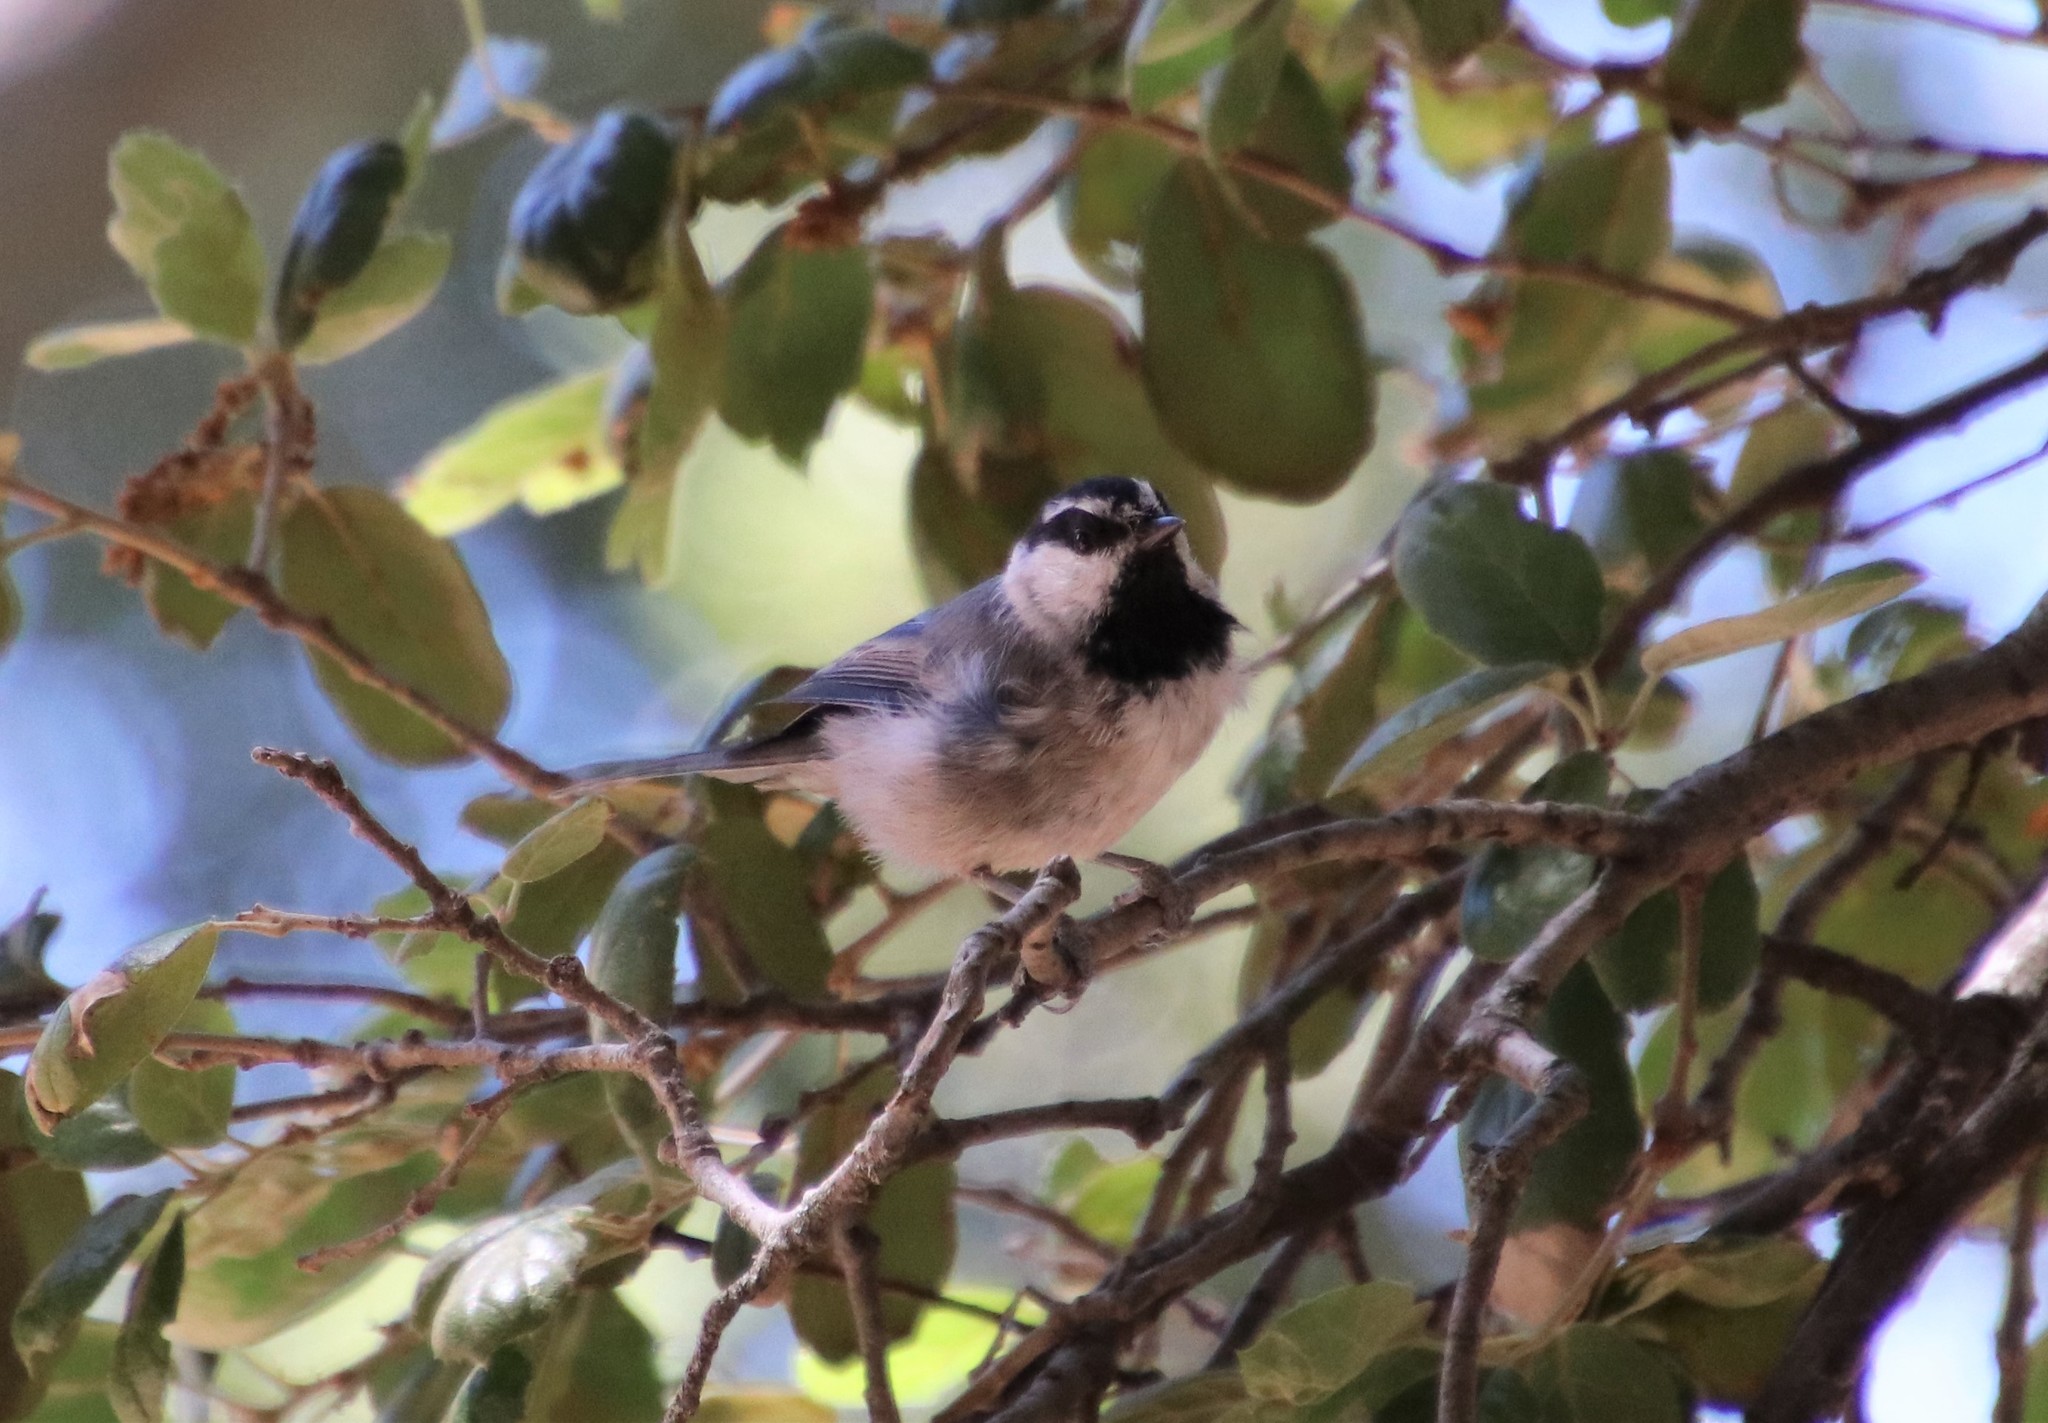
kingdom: Animalia
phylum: Chordata
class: Aves
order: Passeriformes
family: Paridae
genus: Poecile
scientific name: Poecile gambeli
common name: Mountain chickadee
